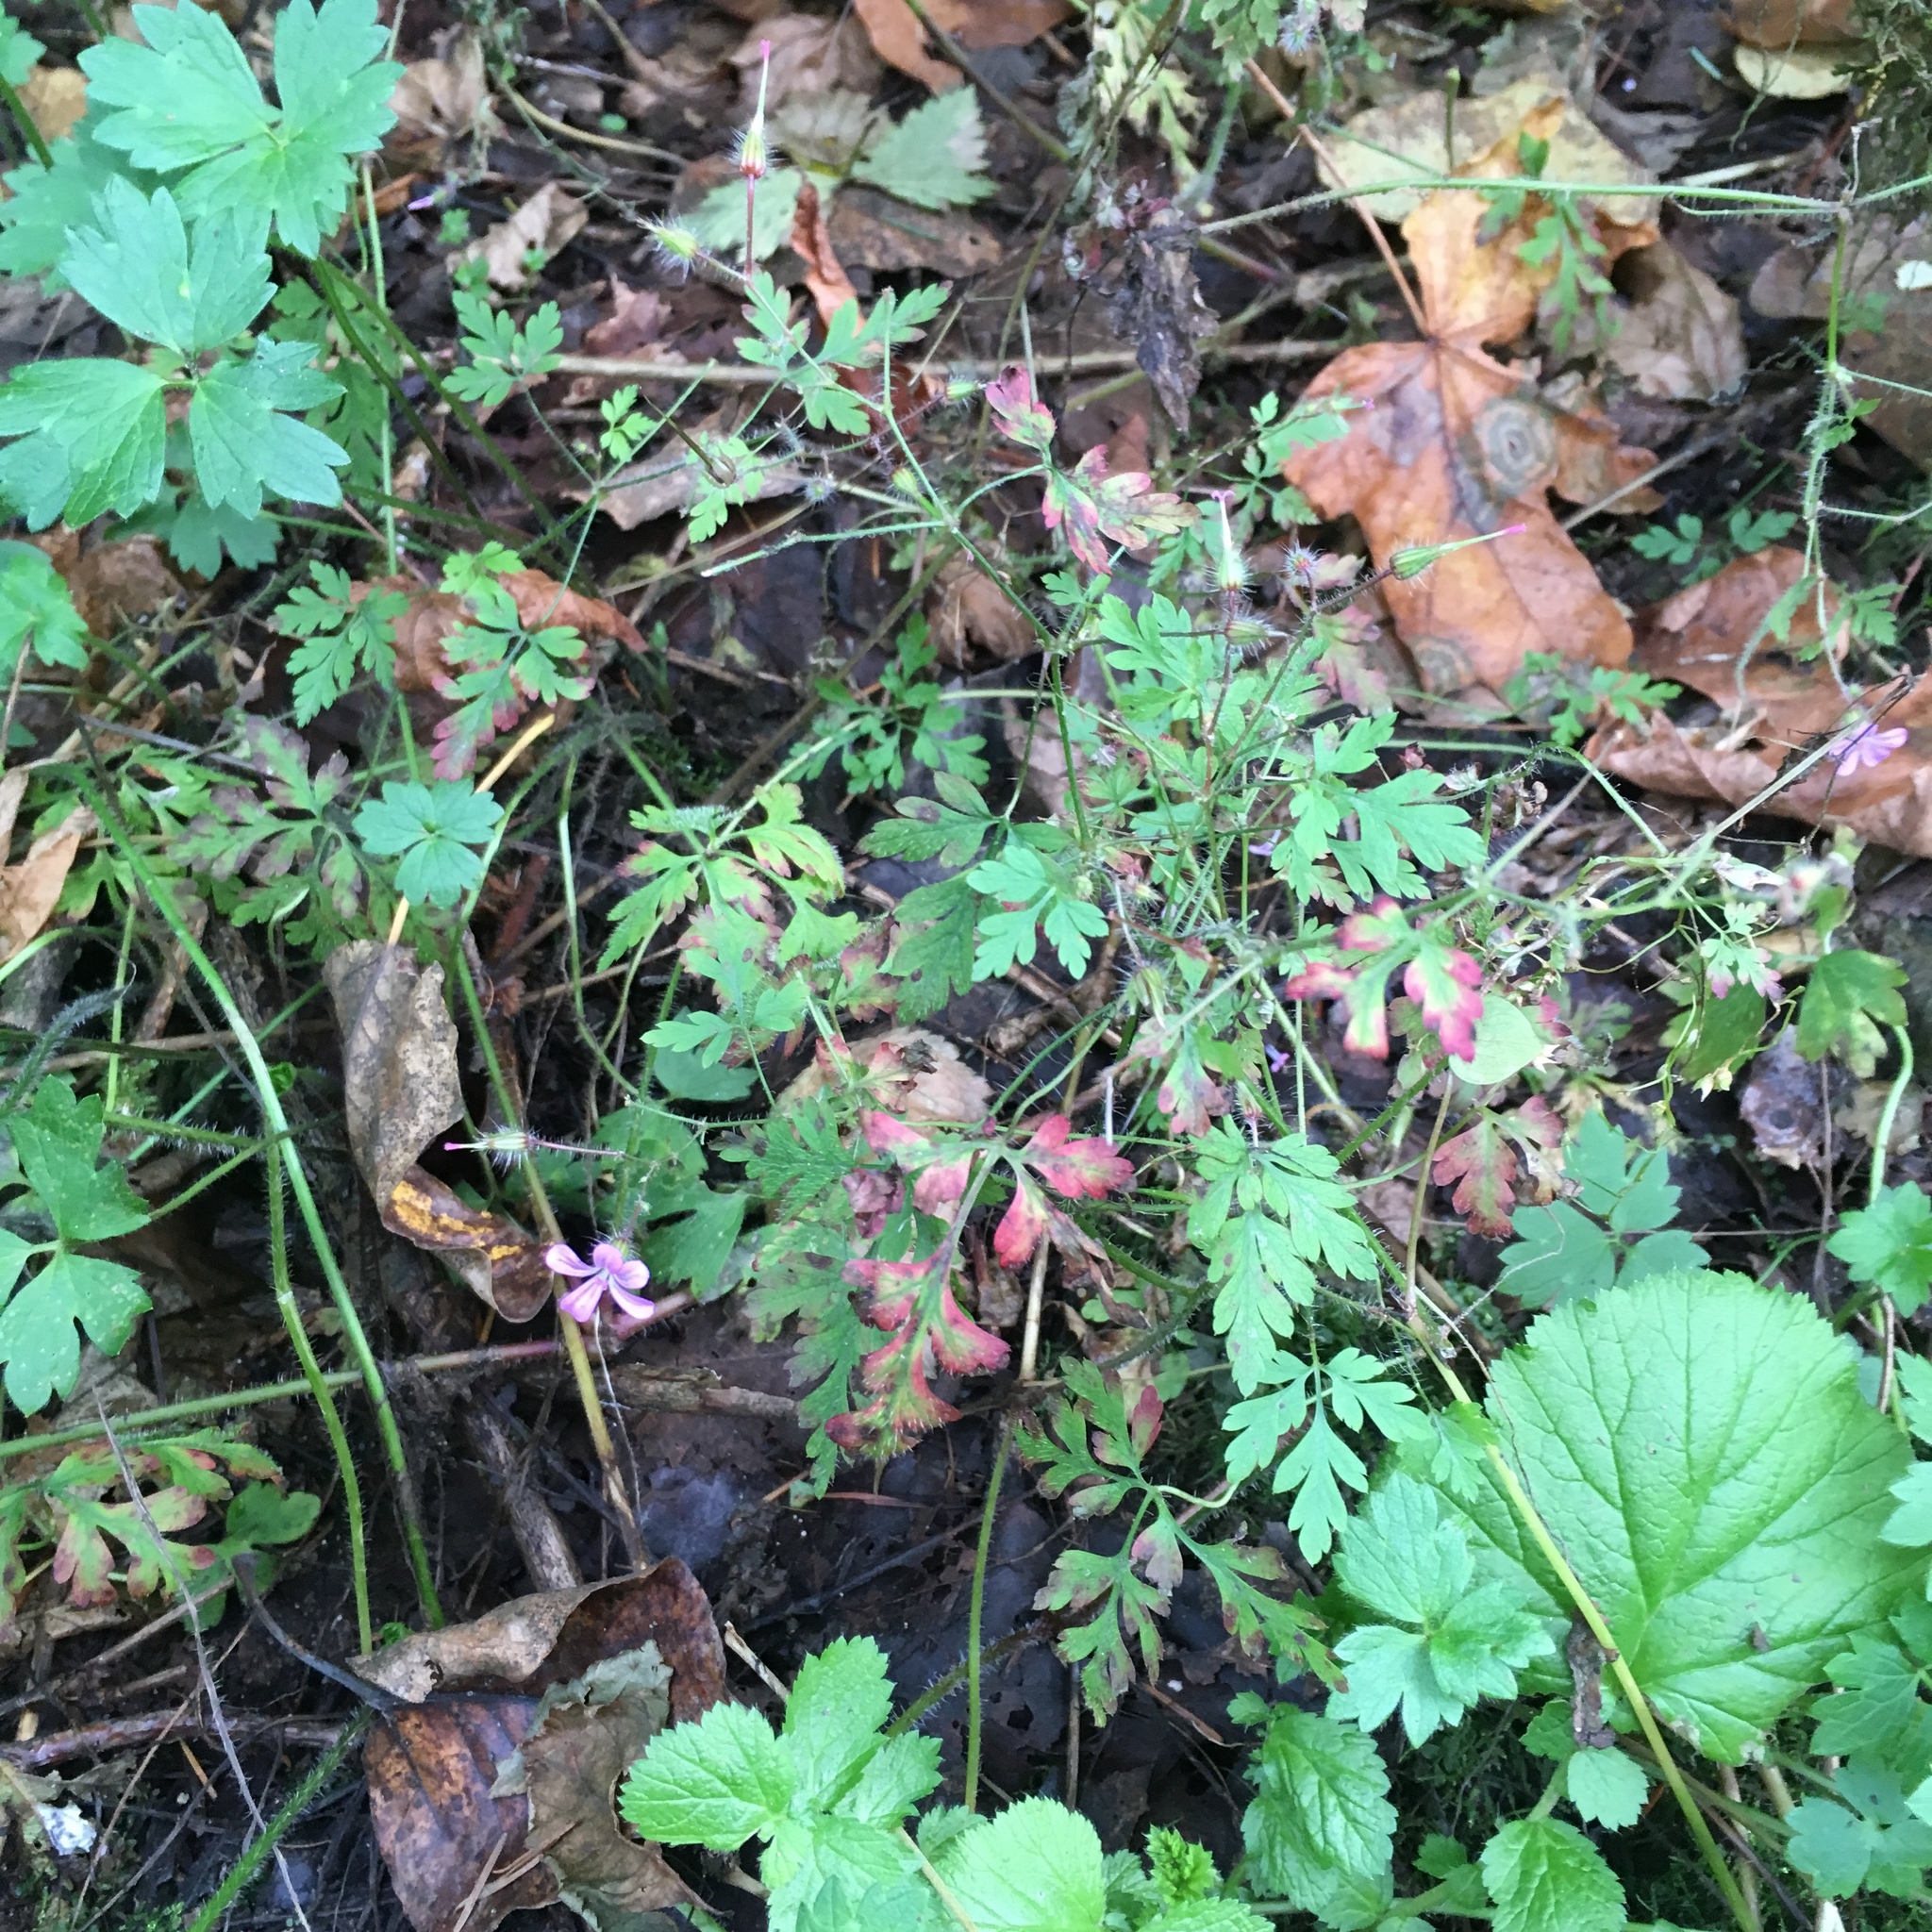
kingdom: Plantae
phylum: Tracheophyta
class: Magnoliopsida
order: Geraniales
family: Geraniaceae
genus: Geranium
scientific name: Geranium robertianum
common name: Herb-robert
